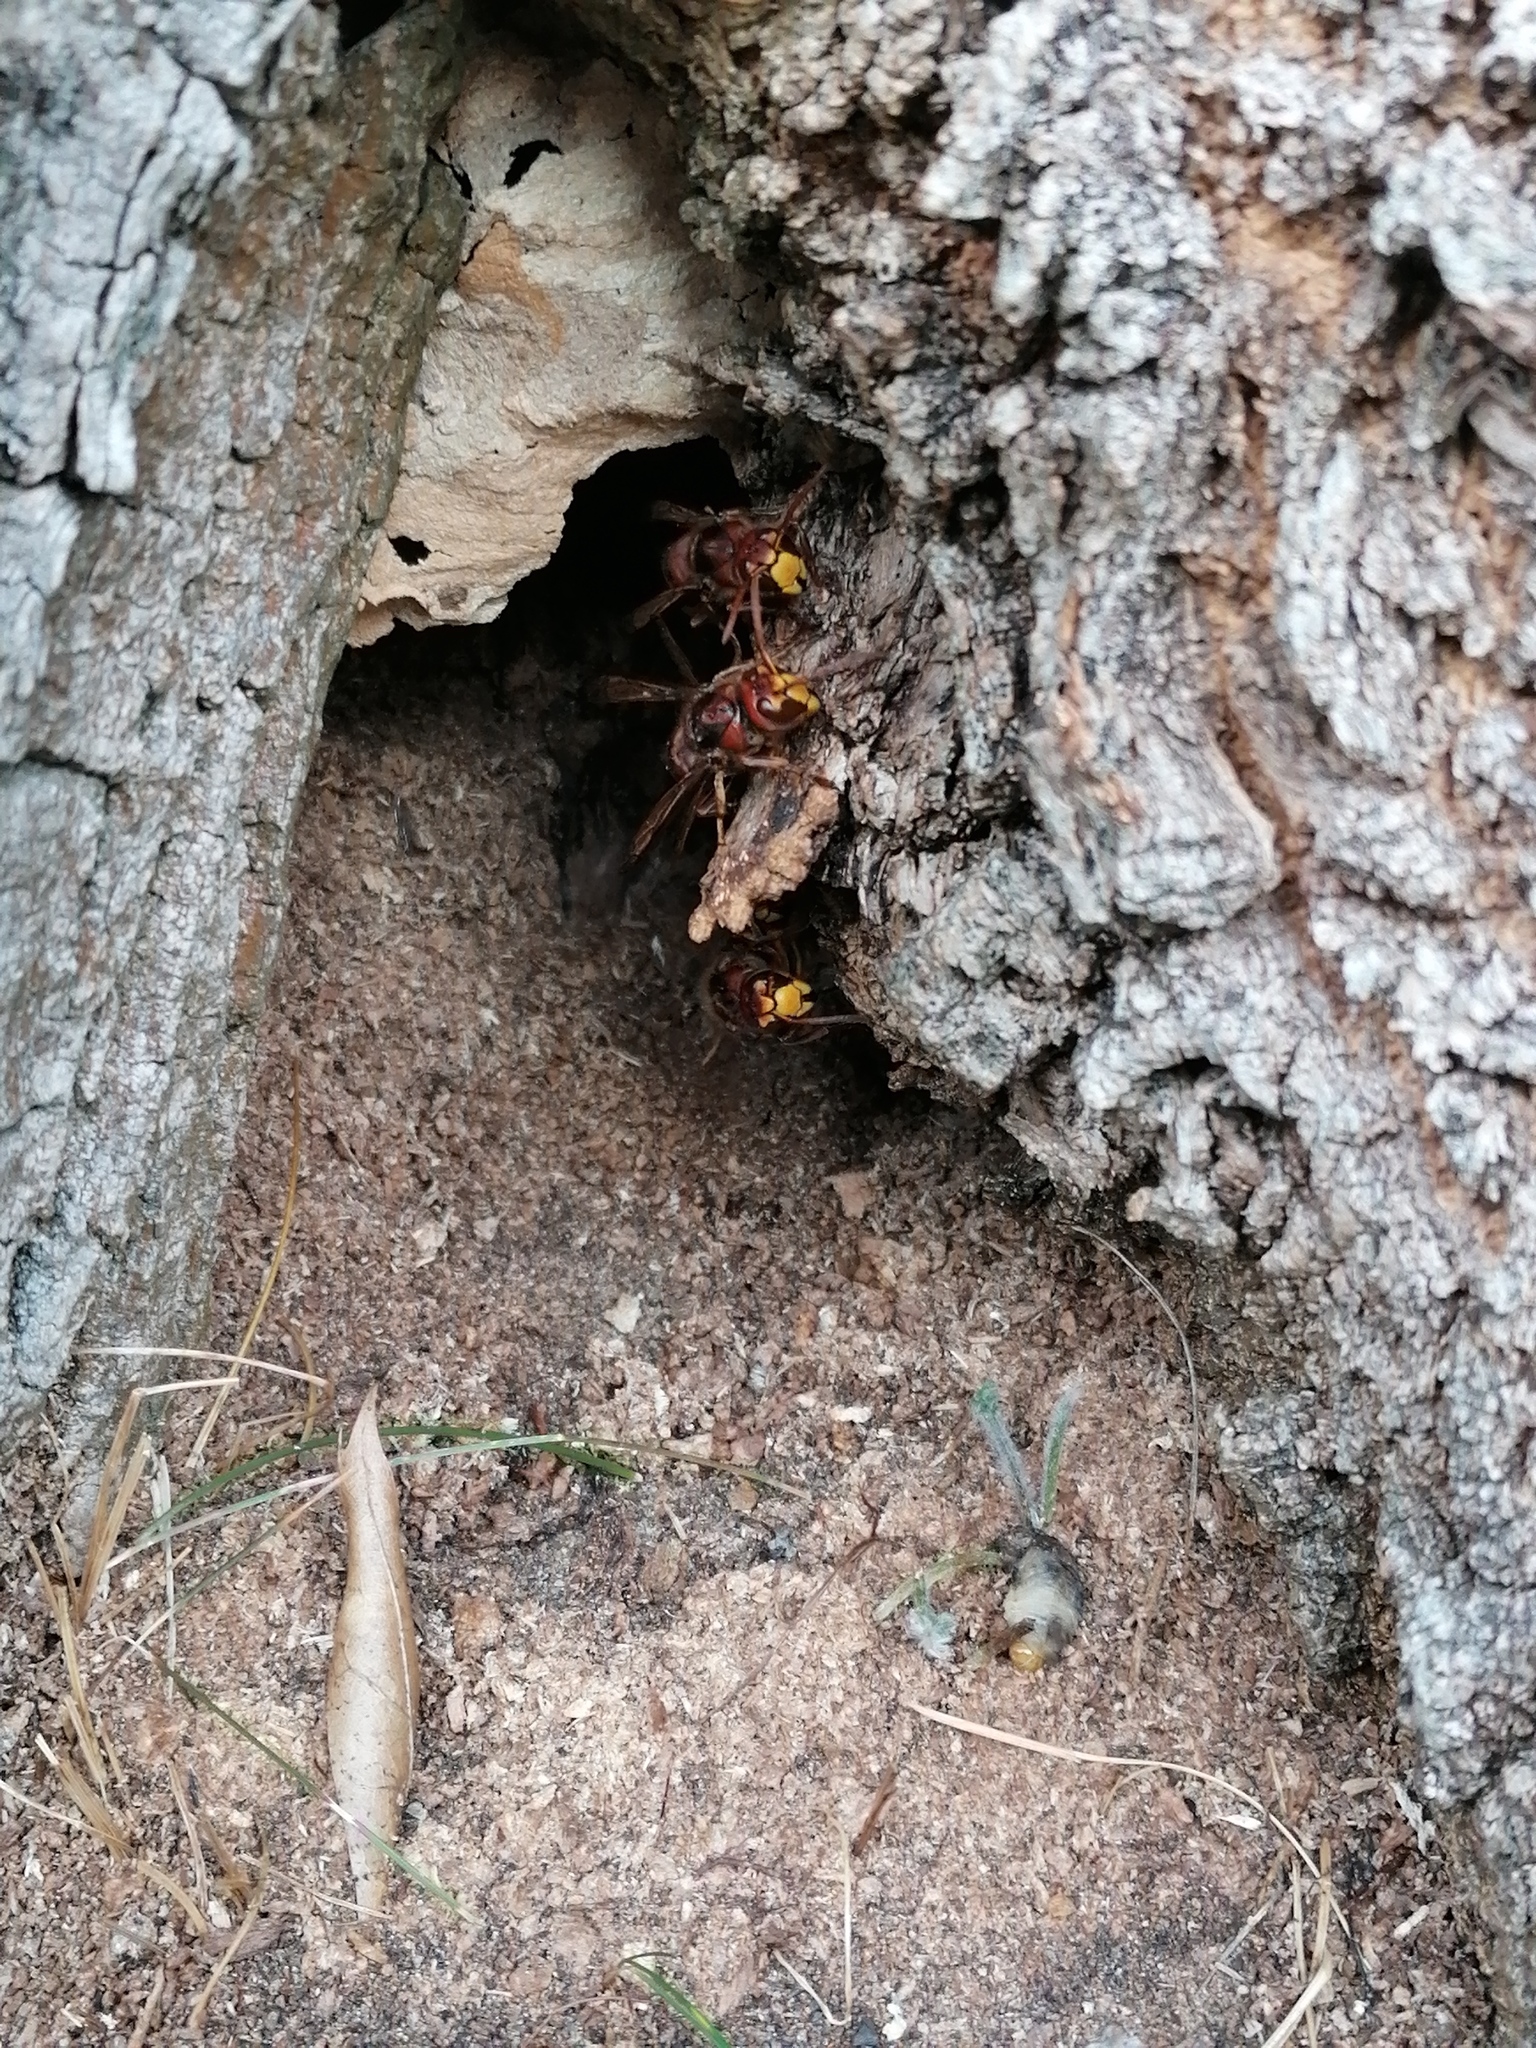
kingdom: Animalia
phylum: Arthropoda
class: Insecta
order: Hymenoptera
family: Vespidae
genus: Vespa
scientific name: Vespa crabro
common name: Hornet
